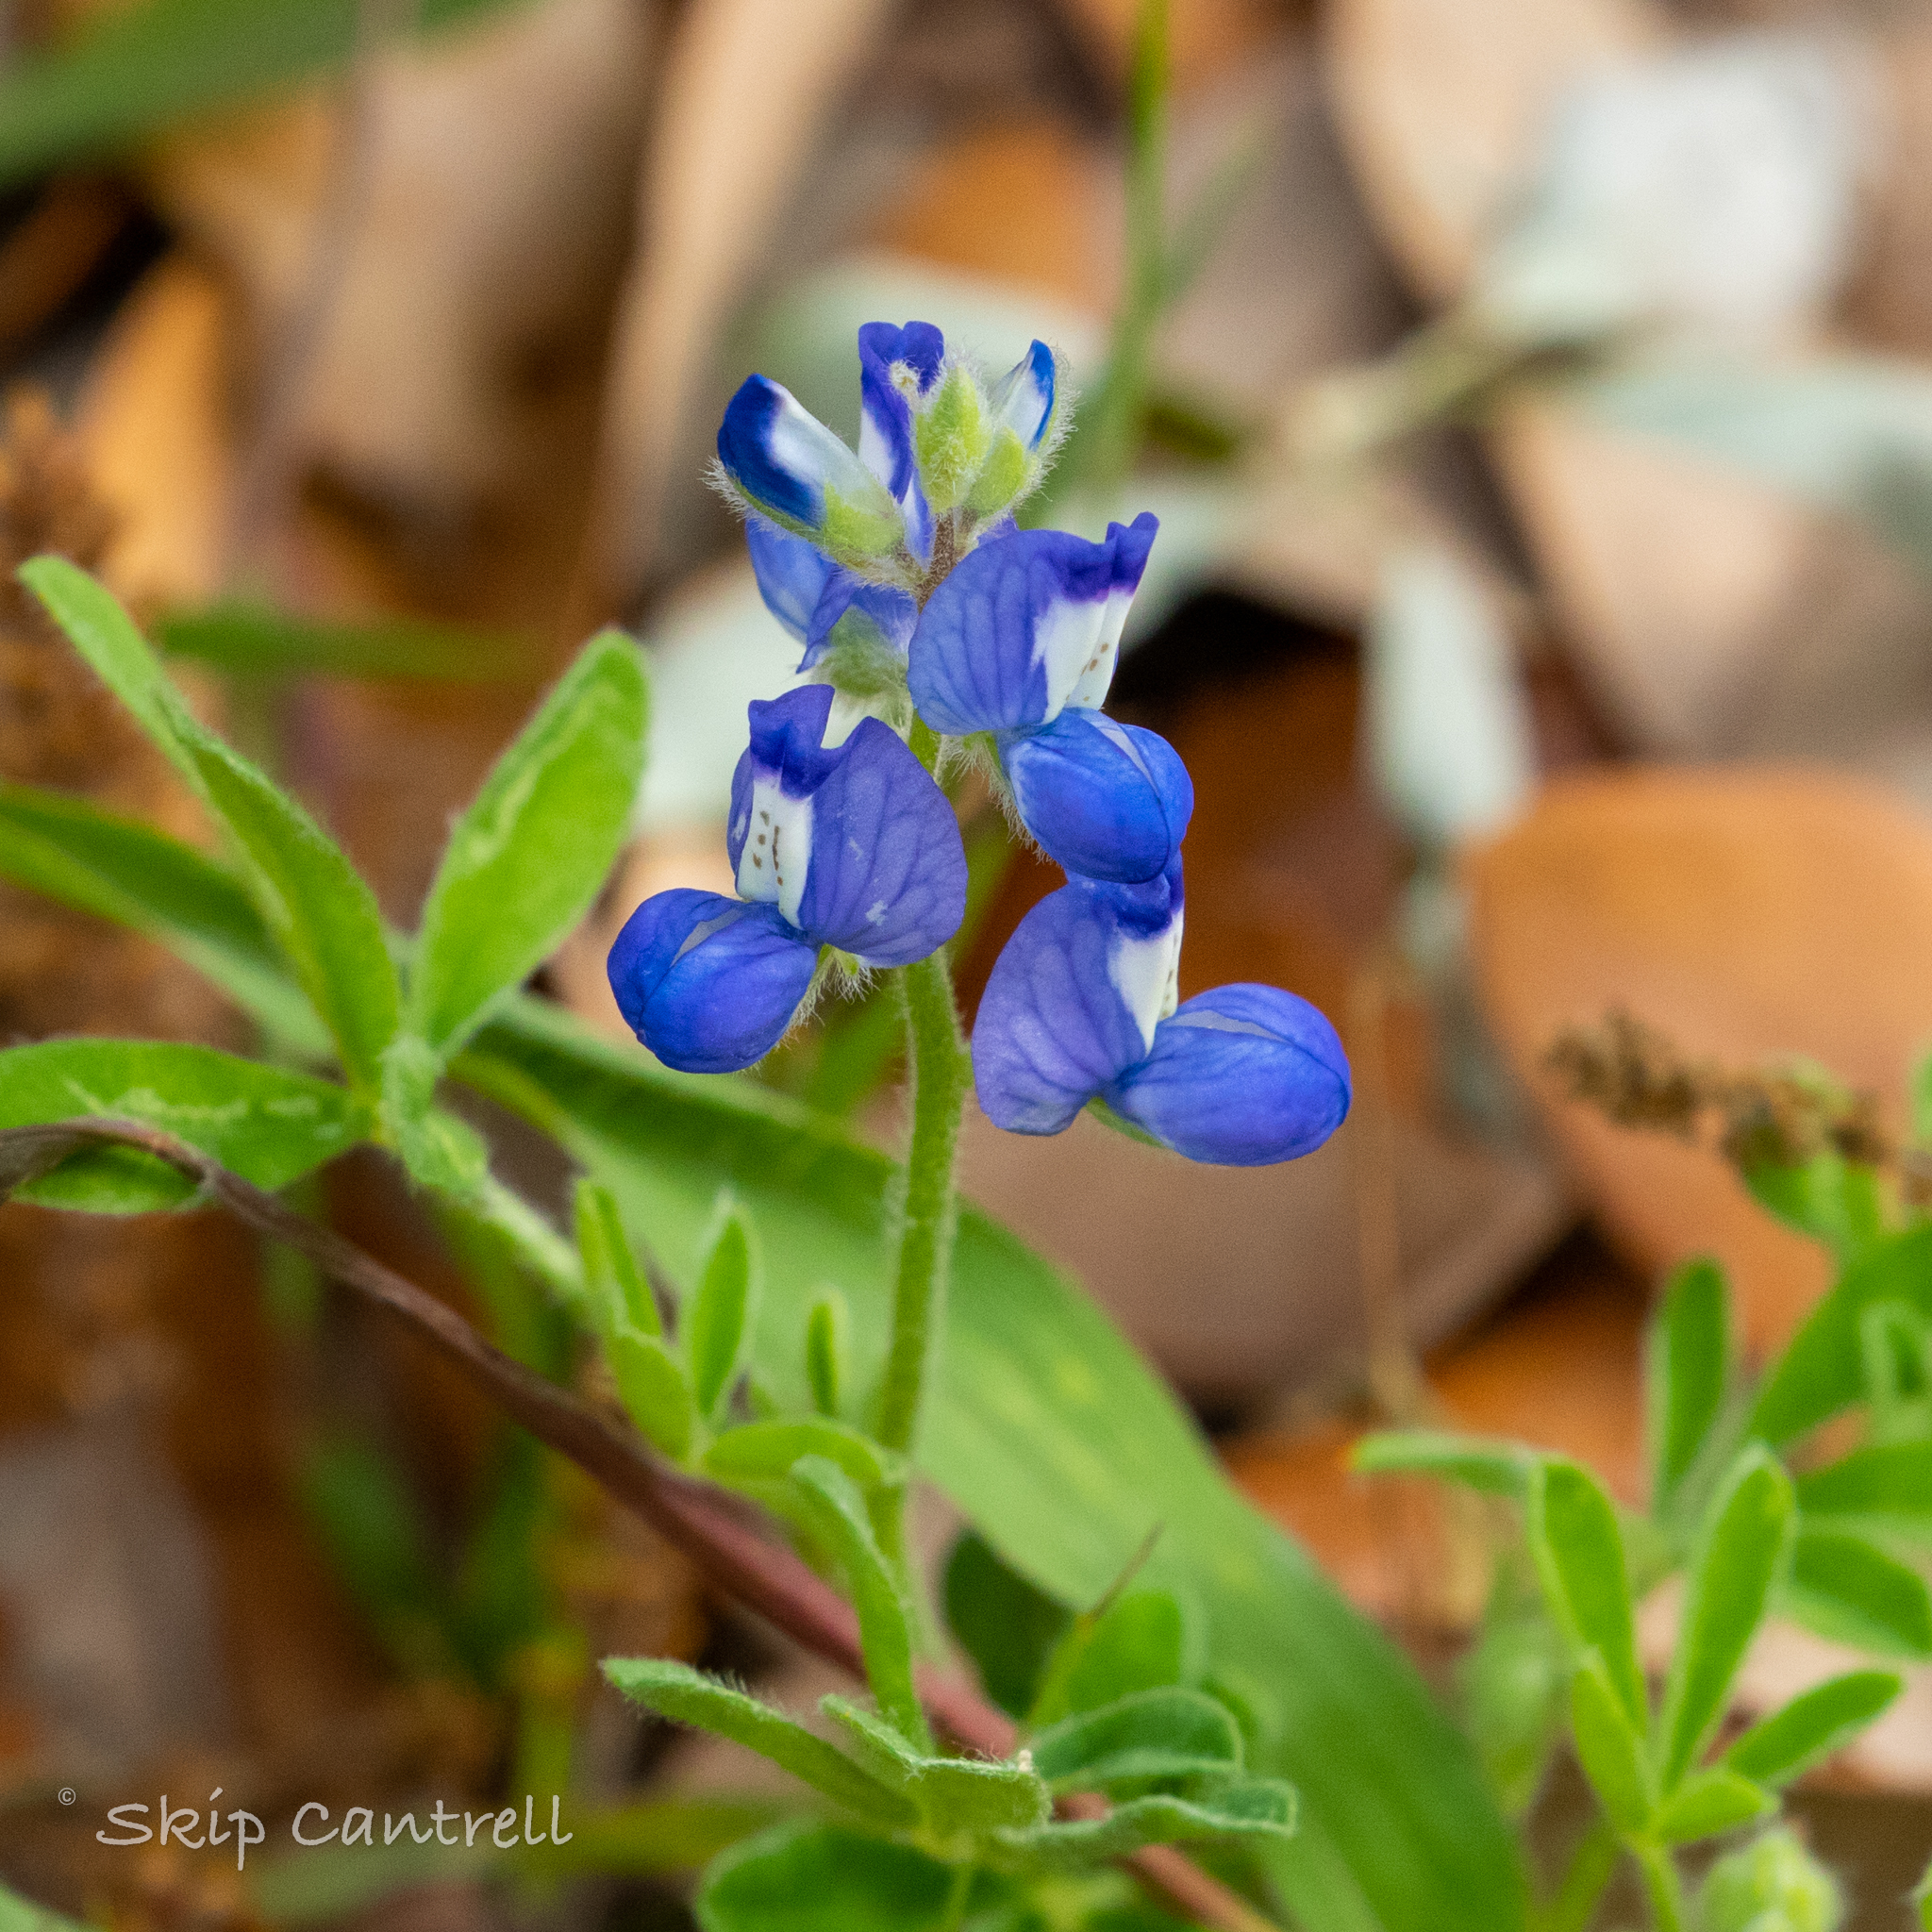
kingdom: Plantae
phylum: Tracheophyta
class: Magnoliopsida
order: Fabales
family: Fabaceae
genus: Lupinus
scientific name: Lupinus subcarnosus
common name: Texas bluebonnet
